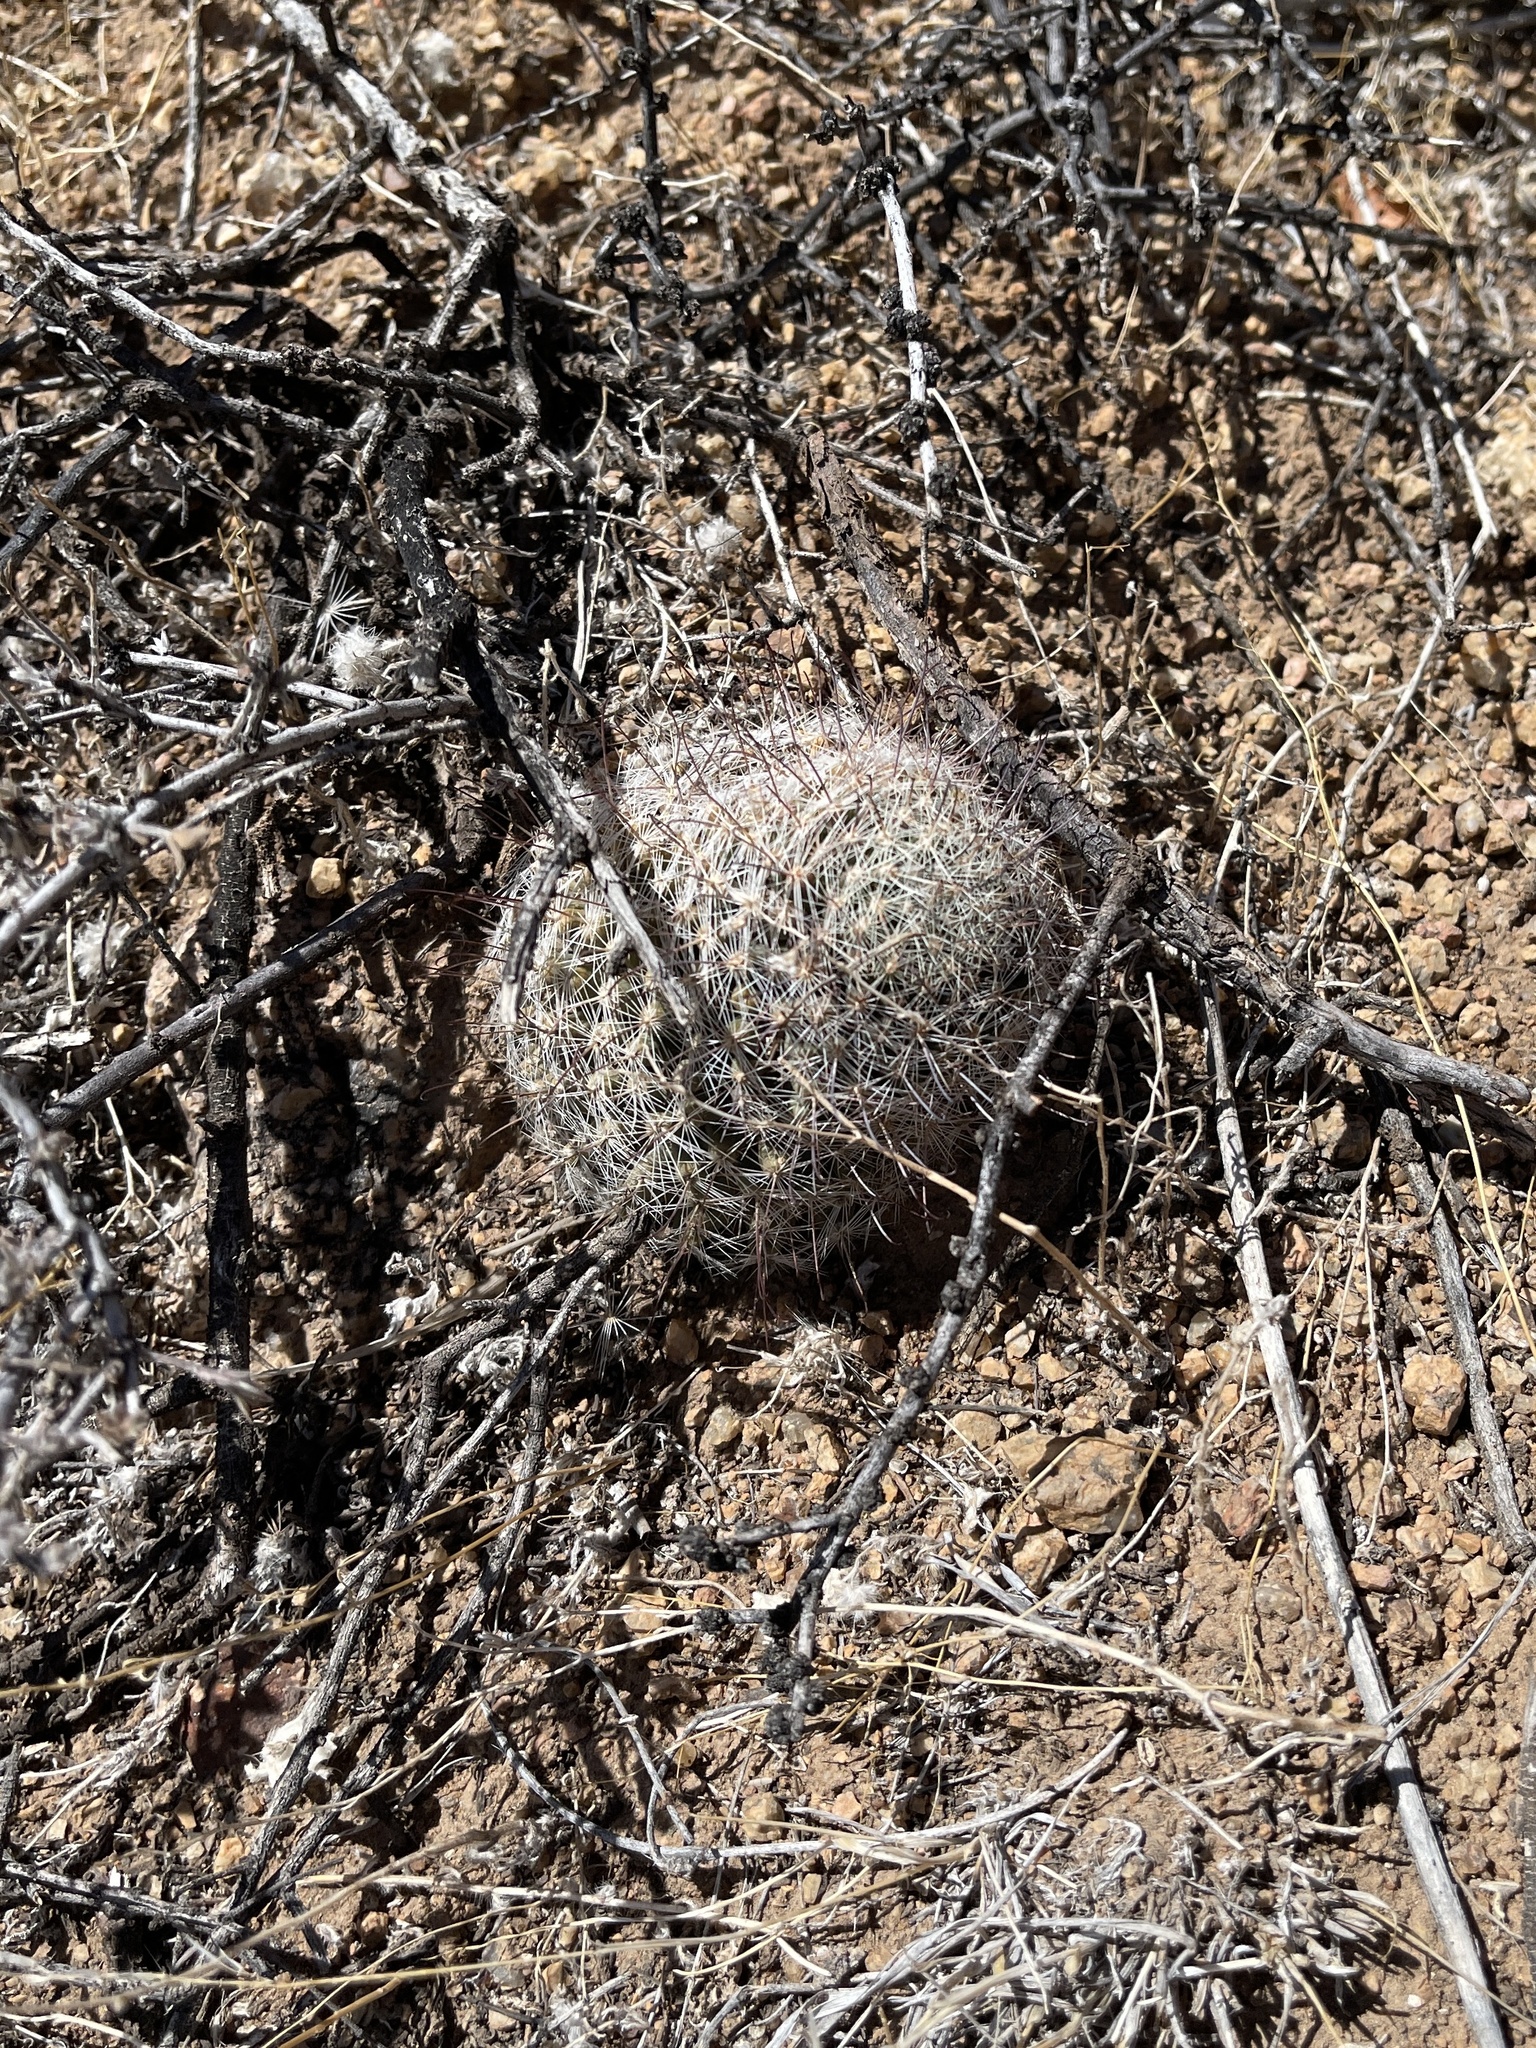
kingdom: Plantae
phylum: Tracheophyta
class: Magnoliopsida
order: Caryophyllales
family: Cactaceae
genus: Cochemiea
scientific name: Cochemiea grahamii
